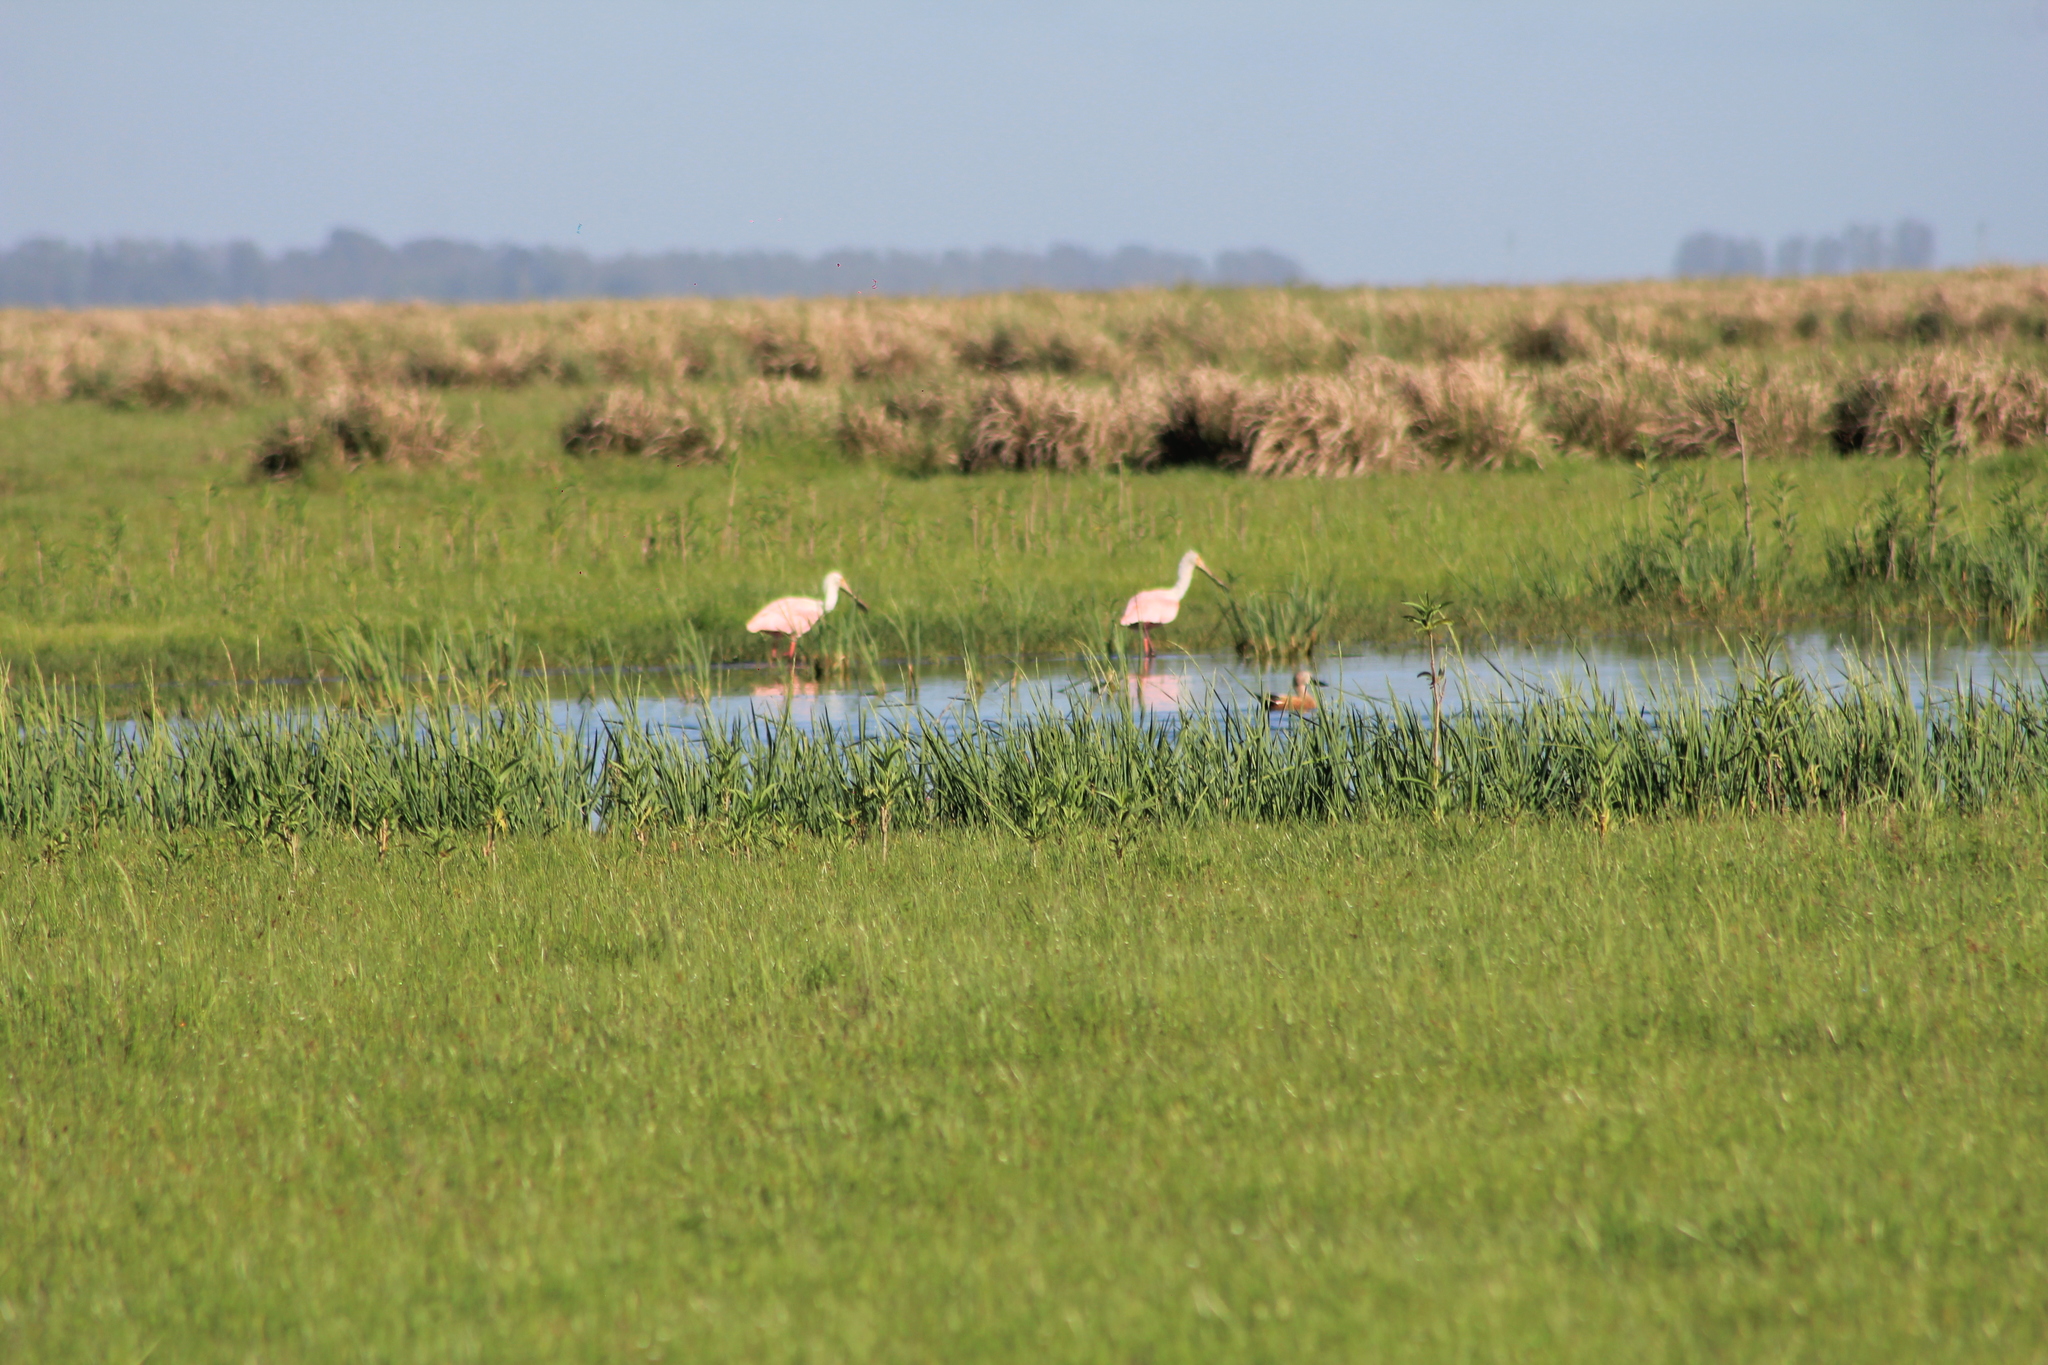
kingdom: Animalia
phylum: Chordata
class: Aves
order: Pelecaniformes
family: Threskiornithidae
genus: Platalea
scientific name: Platalea ajaja
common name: Roseate spoonbill
